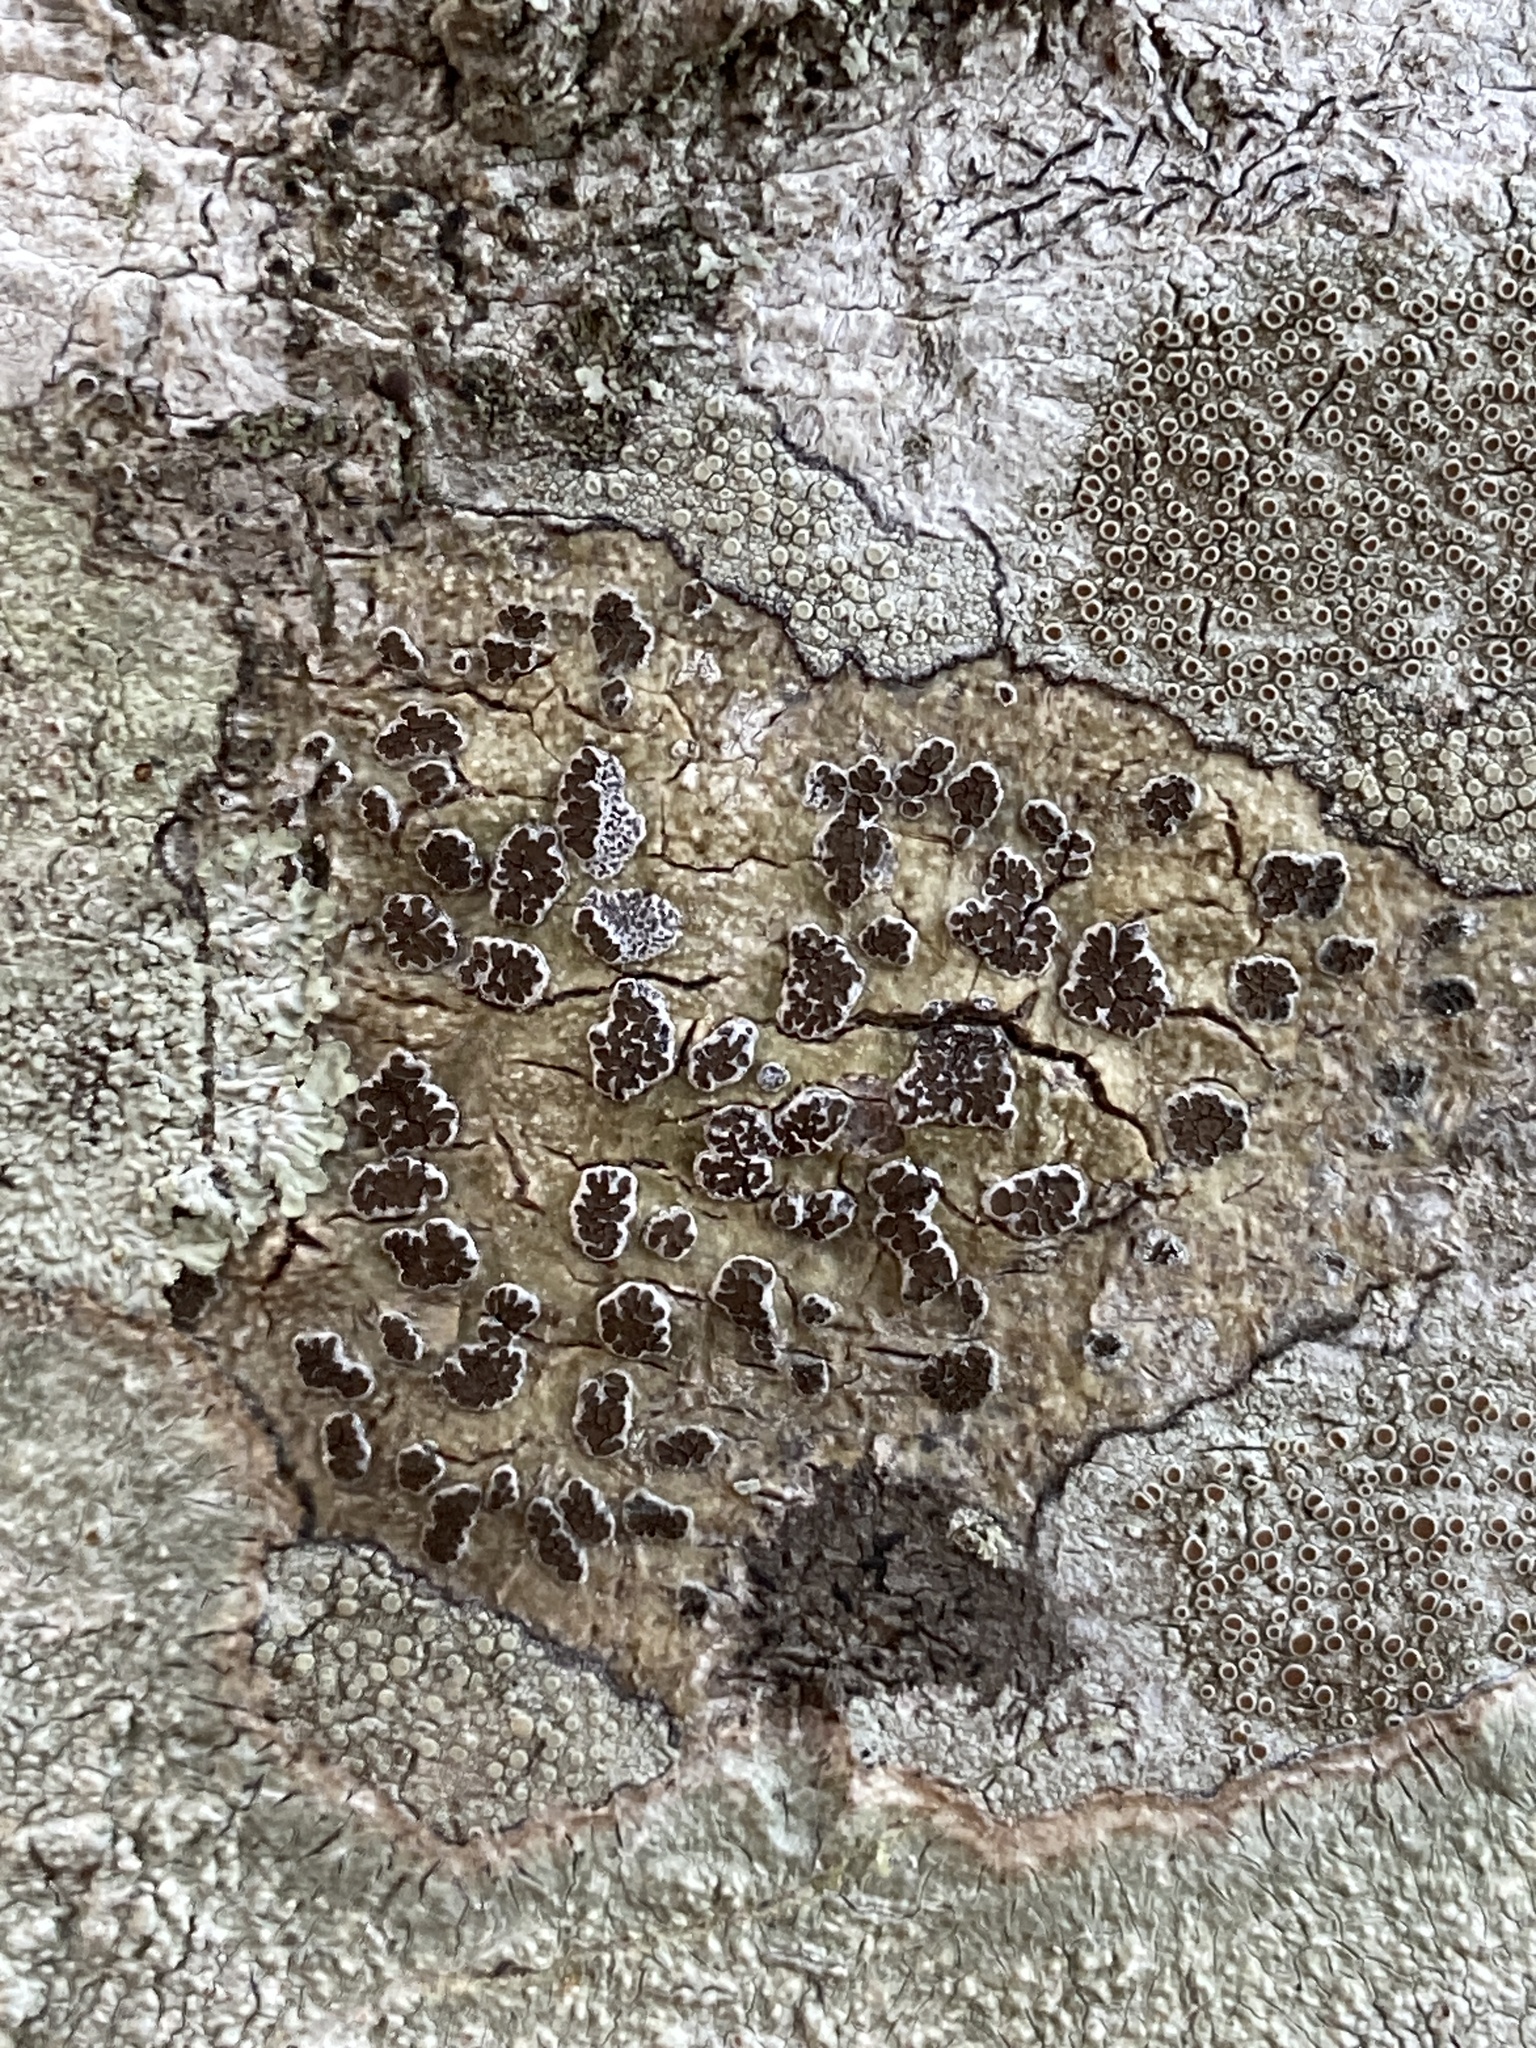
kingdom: Fungi
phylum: Ascomycota
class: Lecanoromycetes
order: Ostropales
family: Graphidaceae
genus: Glyphis
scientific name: Glyphis cicatricosa
